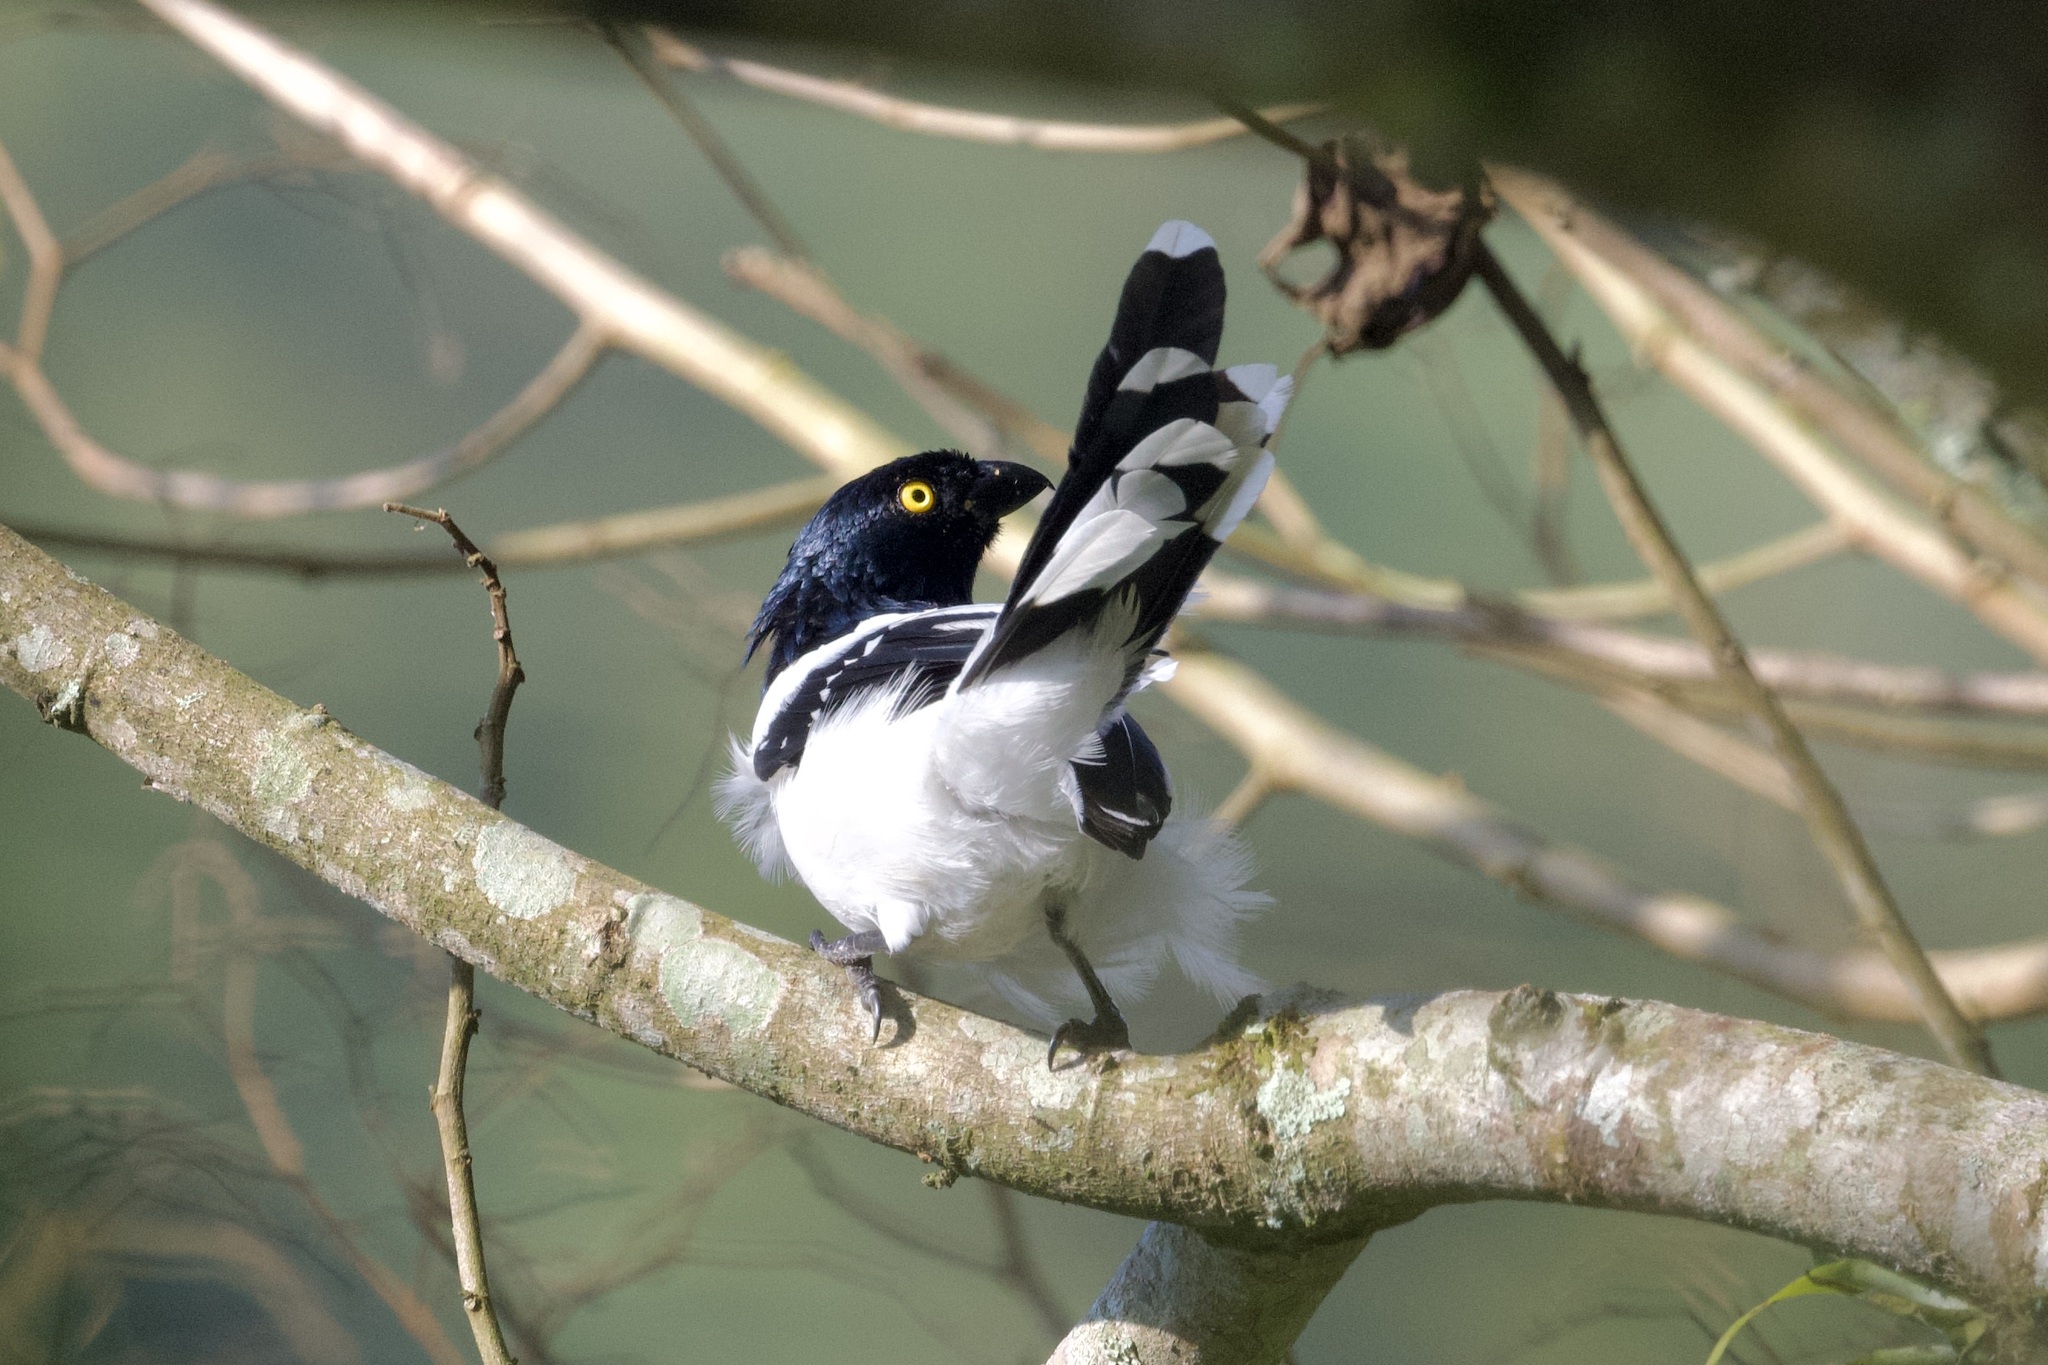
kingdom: Animalia
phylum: Chordata
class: Aves
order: Passeriformes
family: Thraupidae
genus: Cissopis
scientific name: Cissopis leverianus
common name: Magpie tanager
